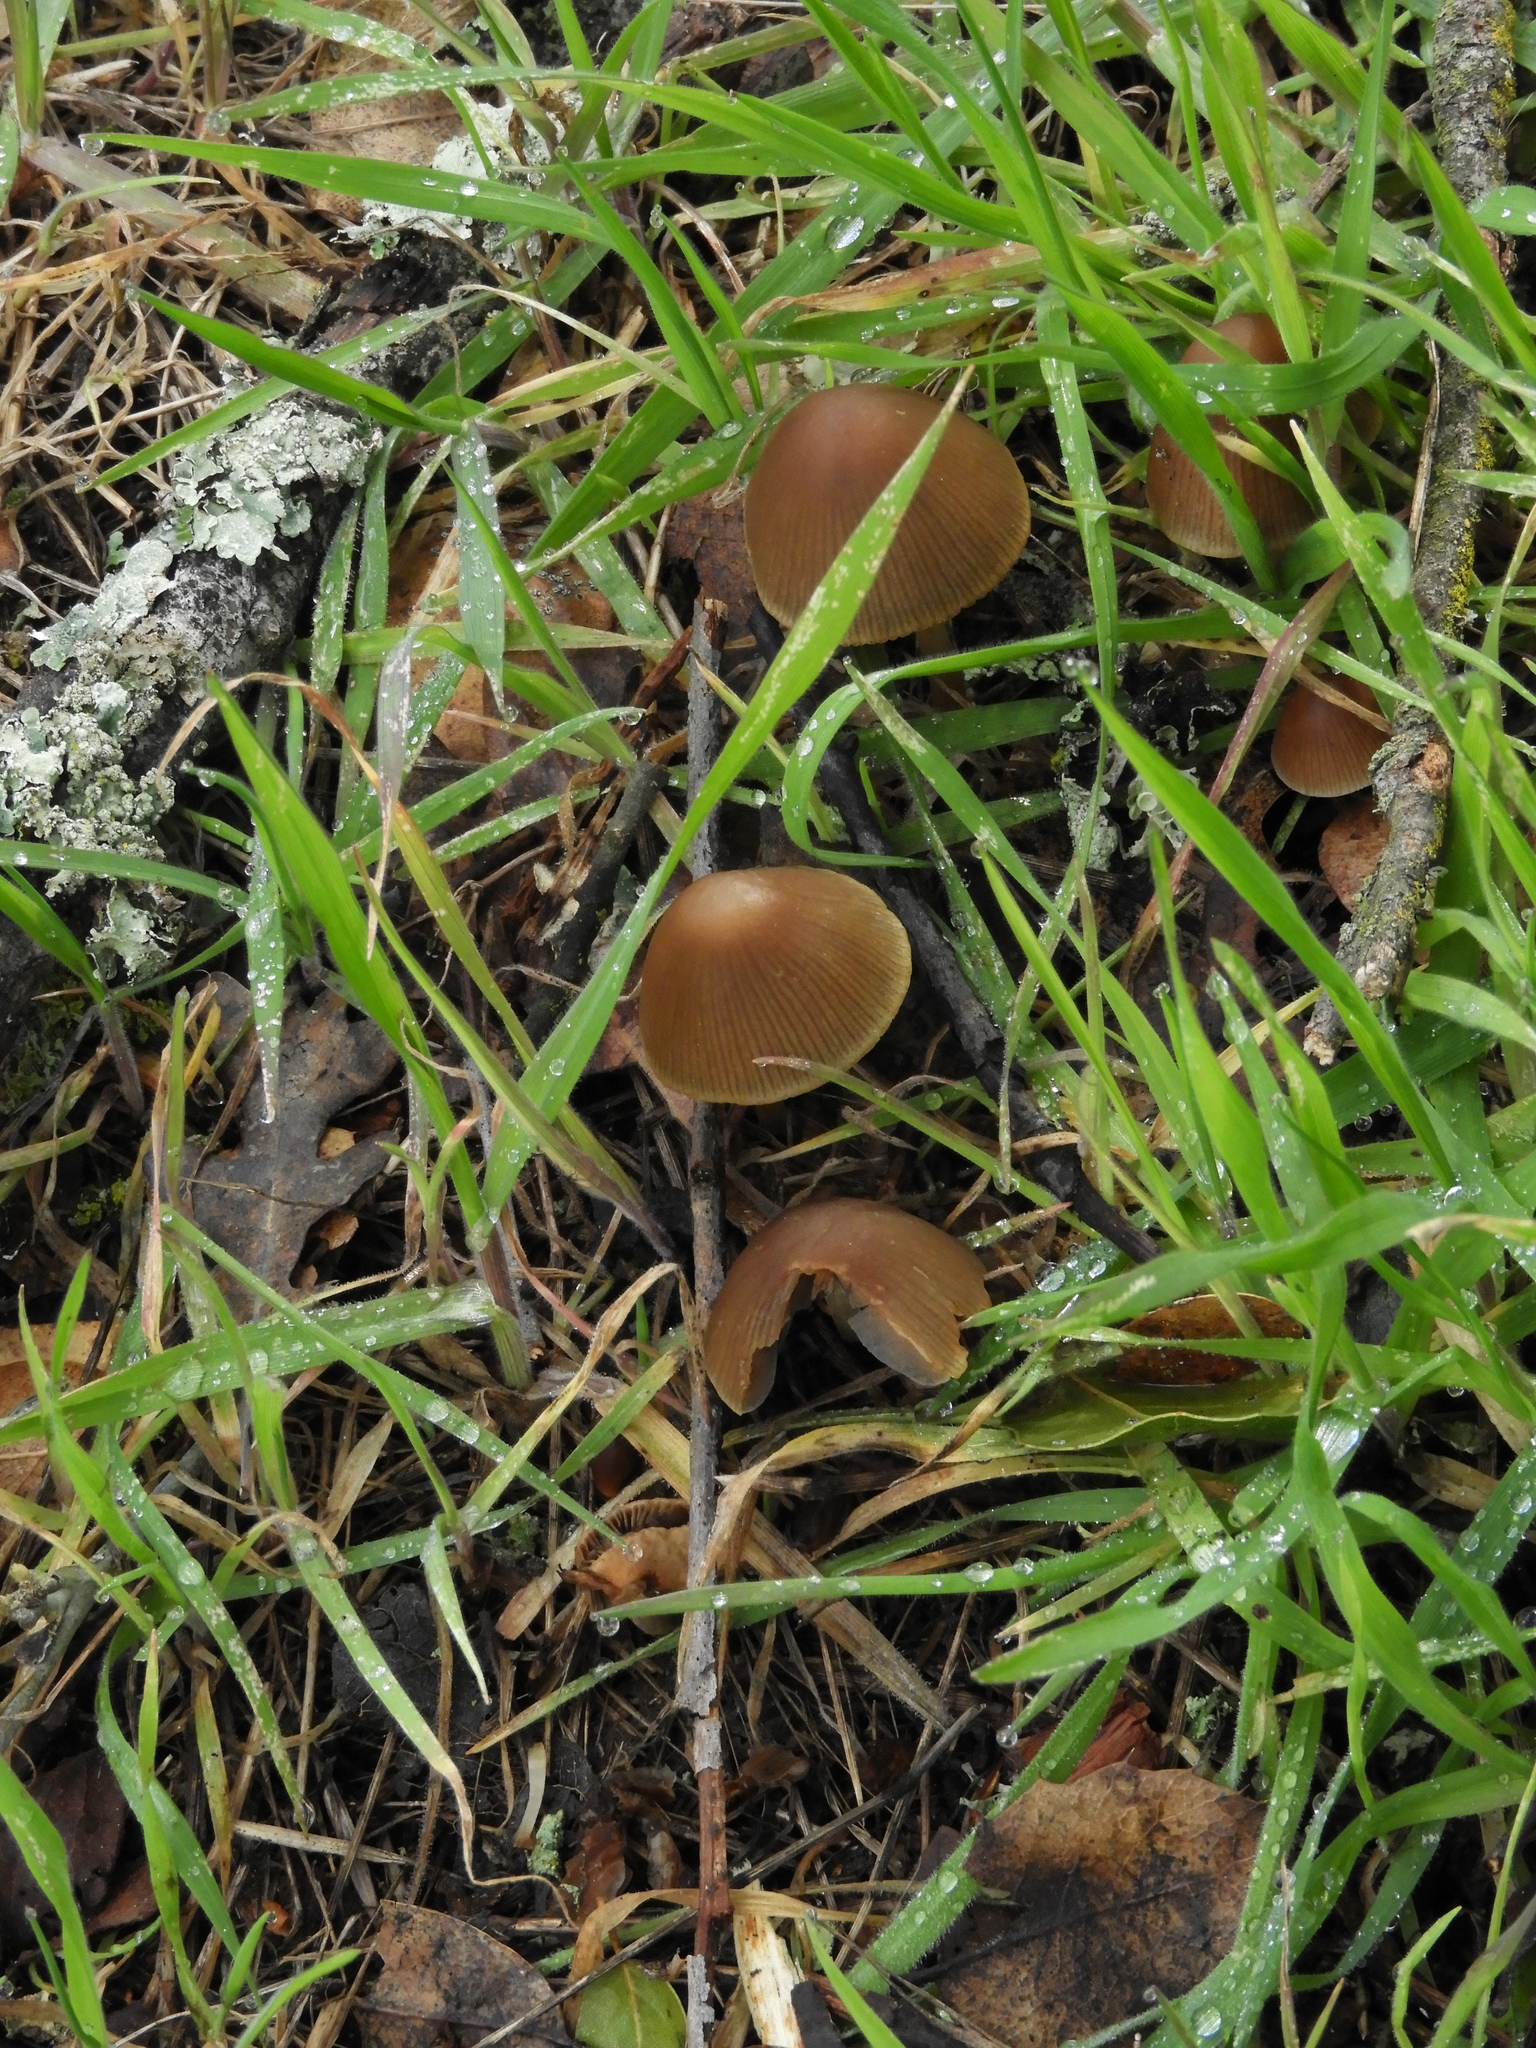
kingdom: Fungi
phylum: Basidiomycota
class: Agaricomycetes
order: Agaricales
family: Psathyrellaceae
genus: Psathyrella
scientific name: Psathyrella corrugis
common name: Red edge brittlestem
